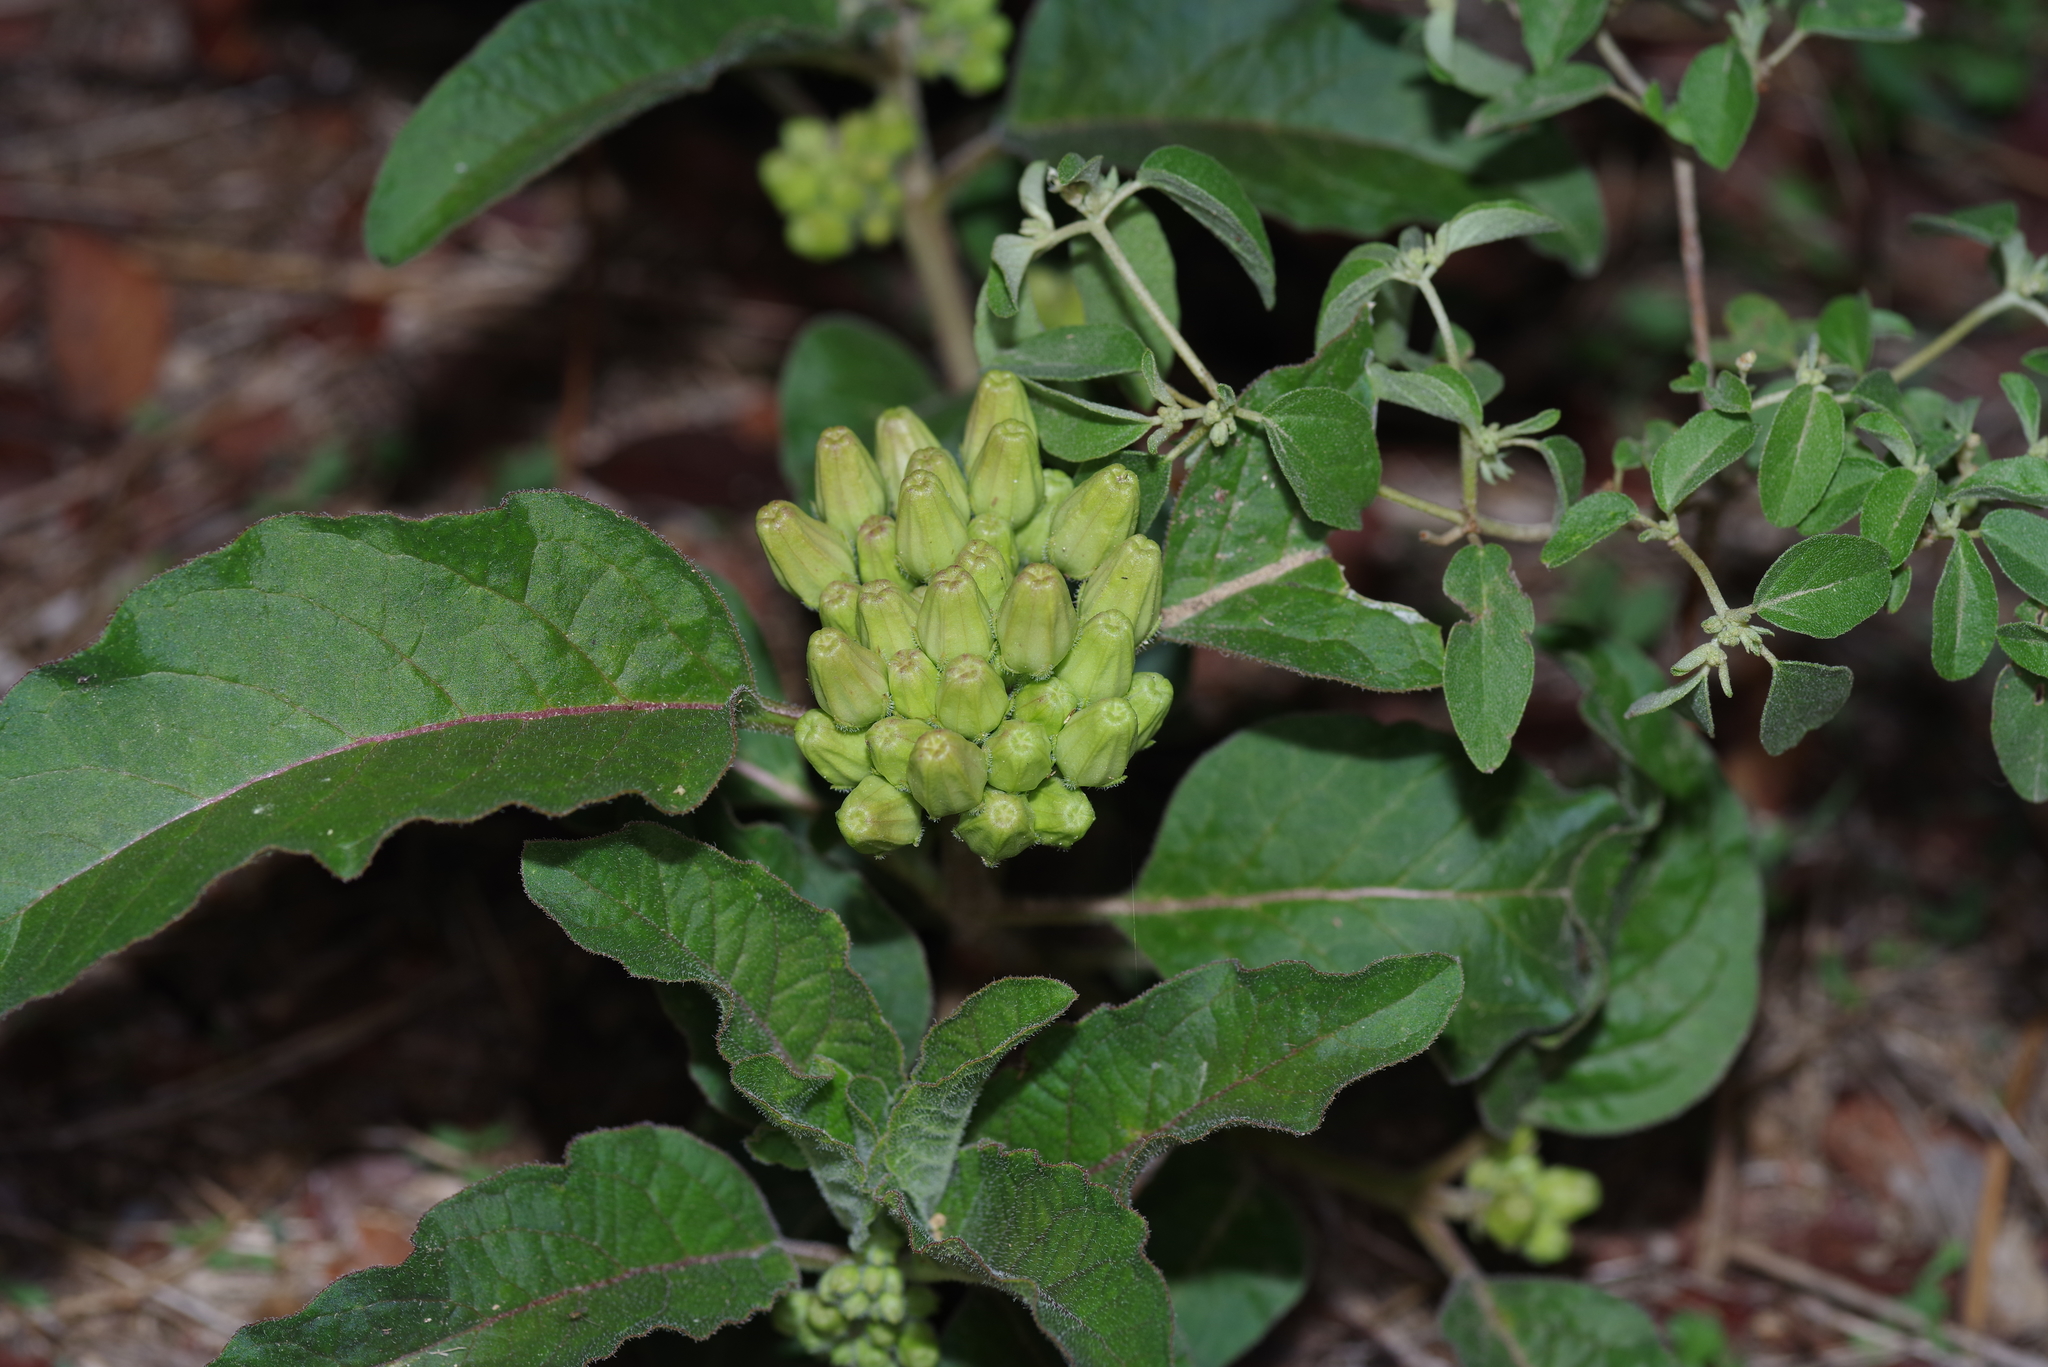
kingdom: Plantae
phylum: Tracheophyta
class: Magnoliopsida
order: Gentianales
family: Apocynaceae
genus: Asclepias
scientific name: Asclepias oenotheroides
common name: Zizotes milkweed
